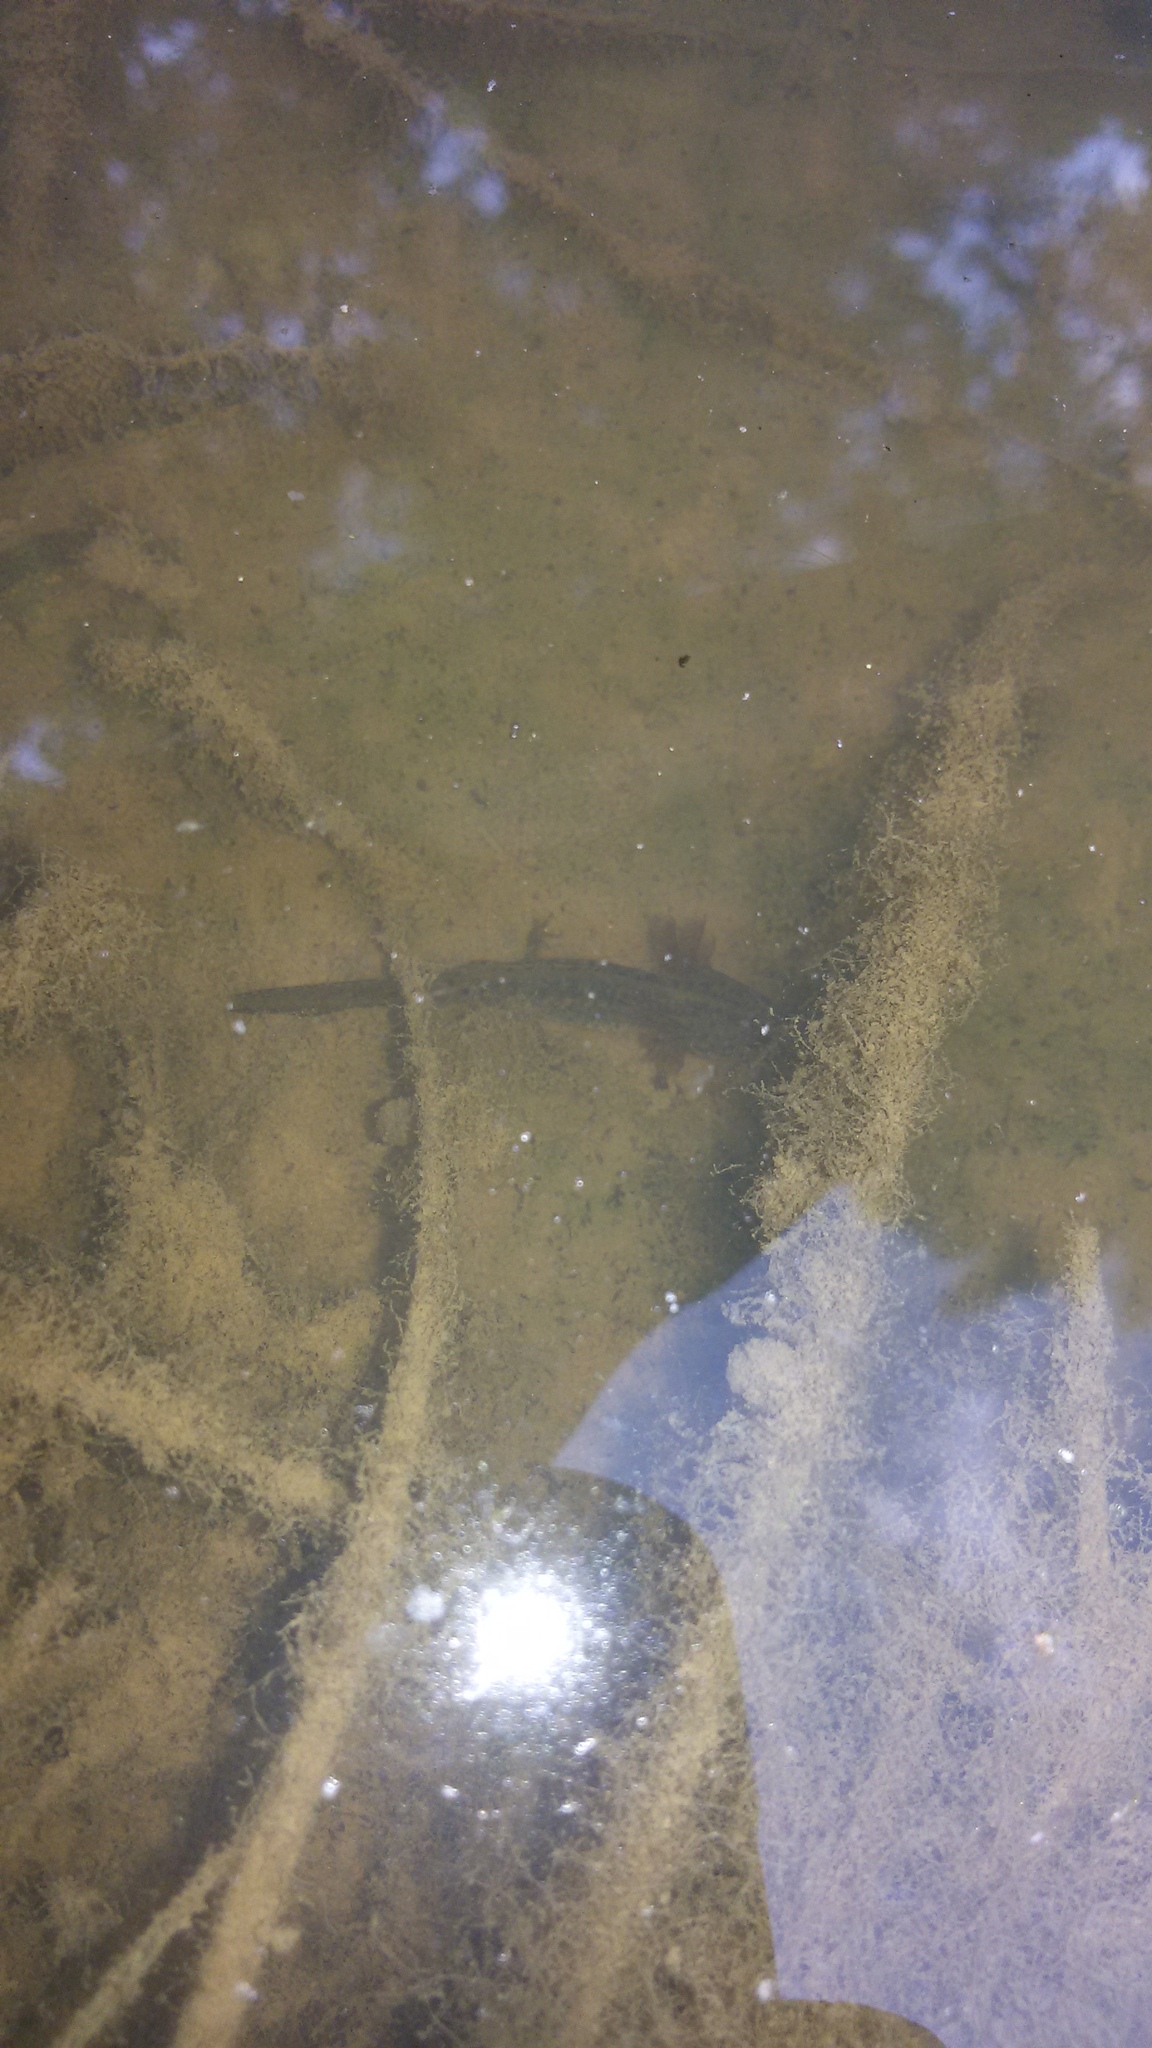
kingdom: Animalia
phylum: Chordata
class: Amphibia
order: Caudata
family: Salamandridae
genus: Ichthyosaura
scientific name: Ichthyosaura alpestris
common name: Alpine newt
